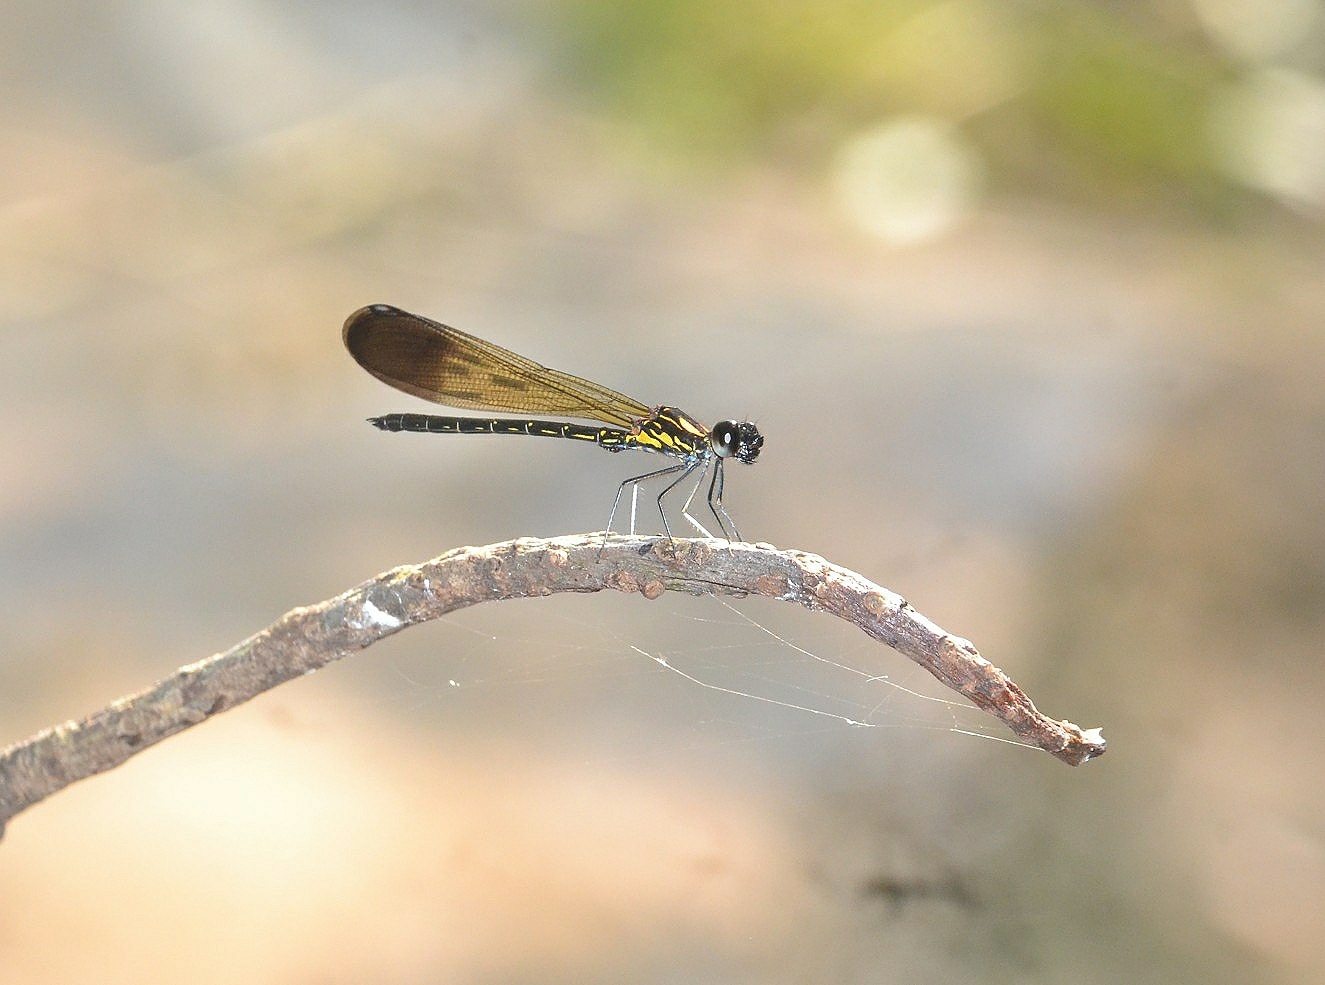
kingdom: Animalia
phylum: Arthropoda
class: Insecta
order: Odonata
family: Chlorocyphidae
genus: Heliocypha
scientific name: Heliocypha bisignata
